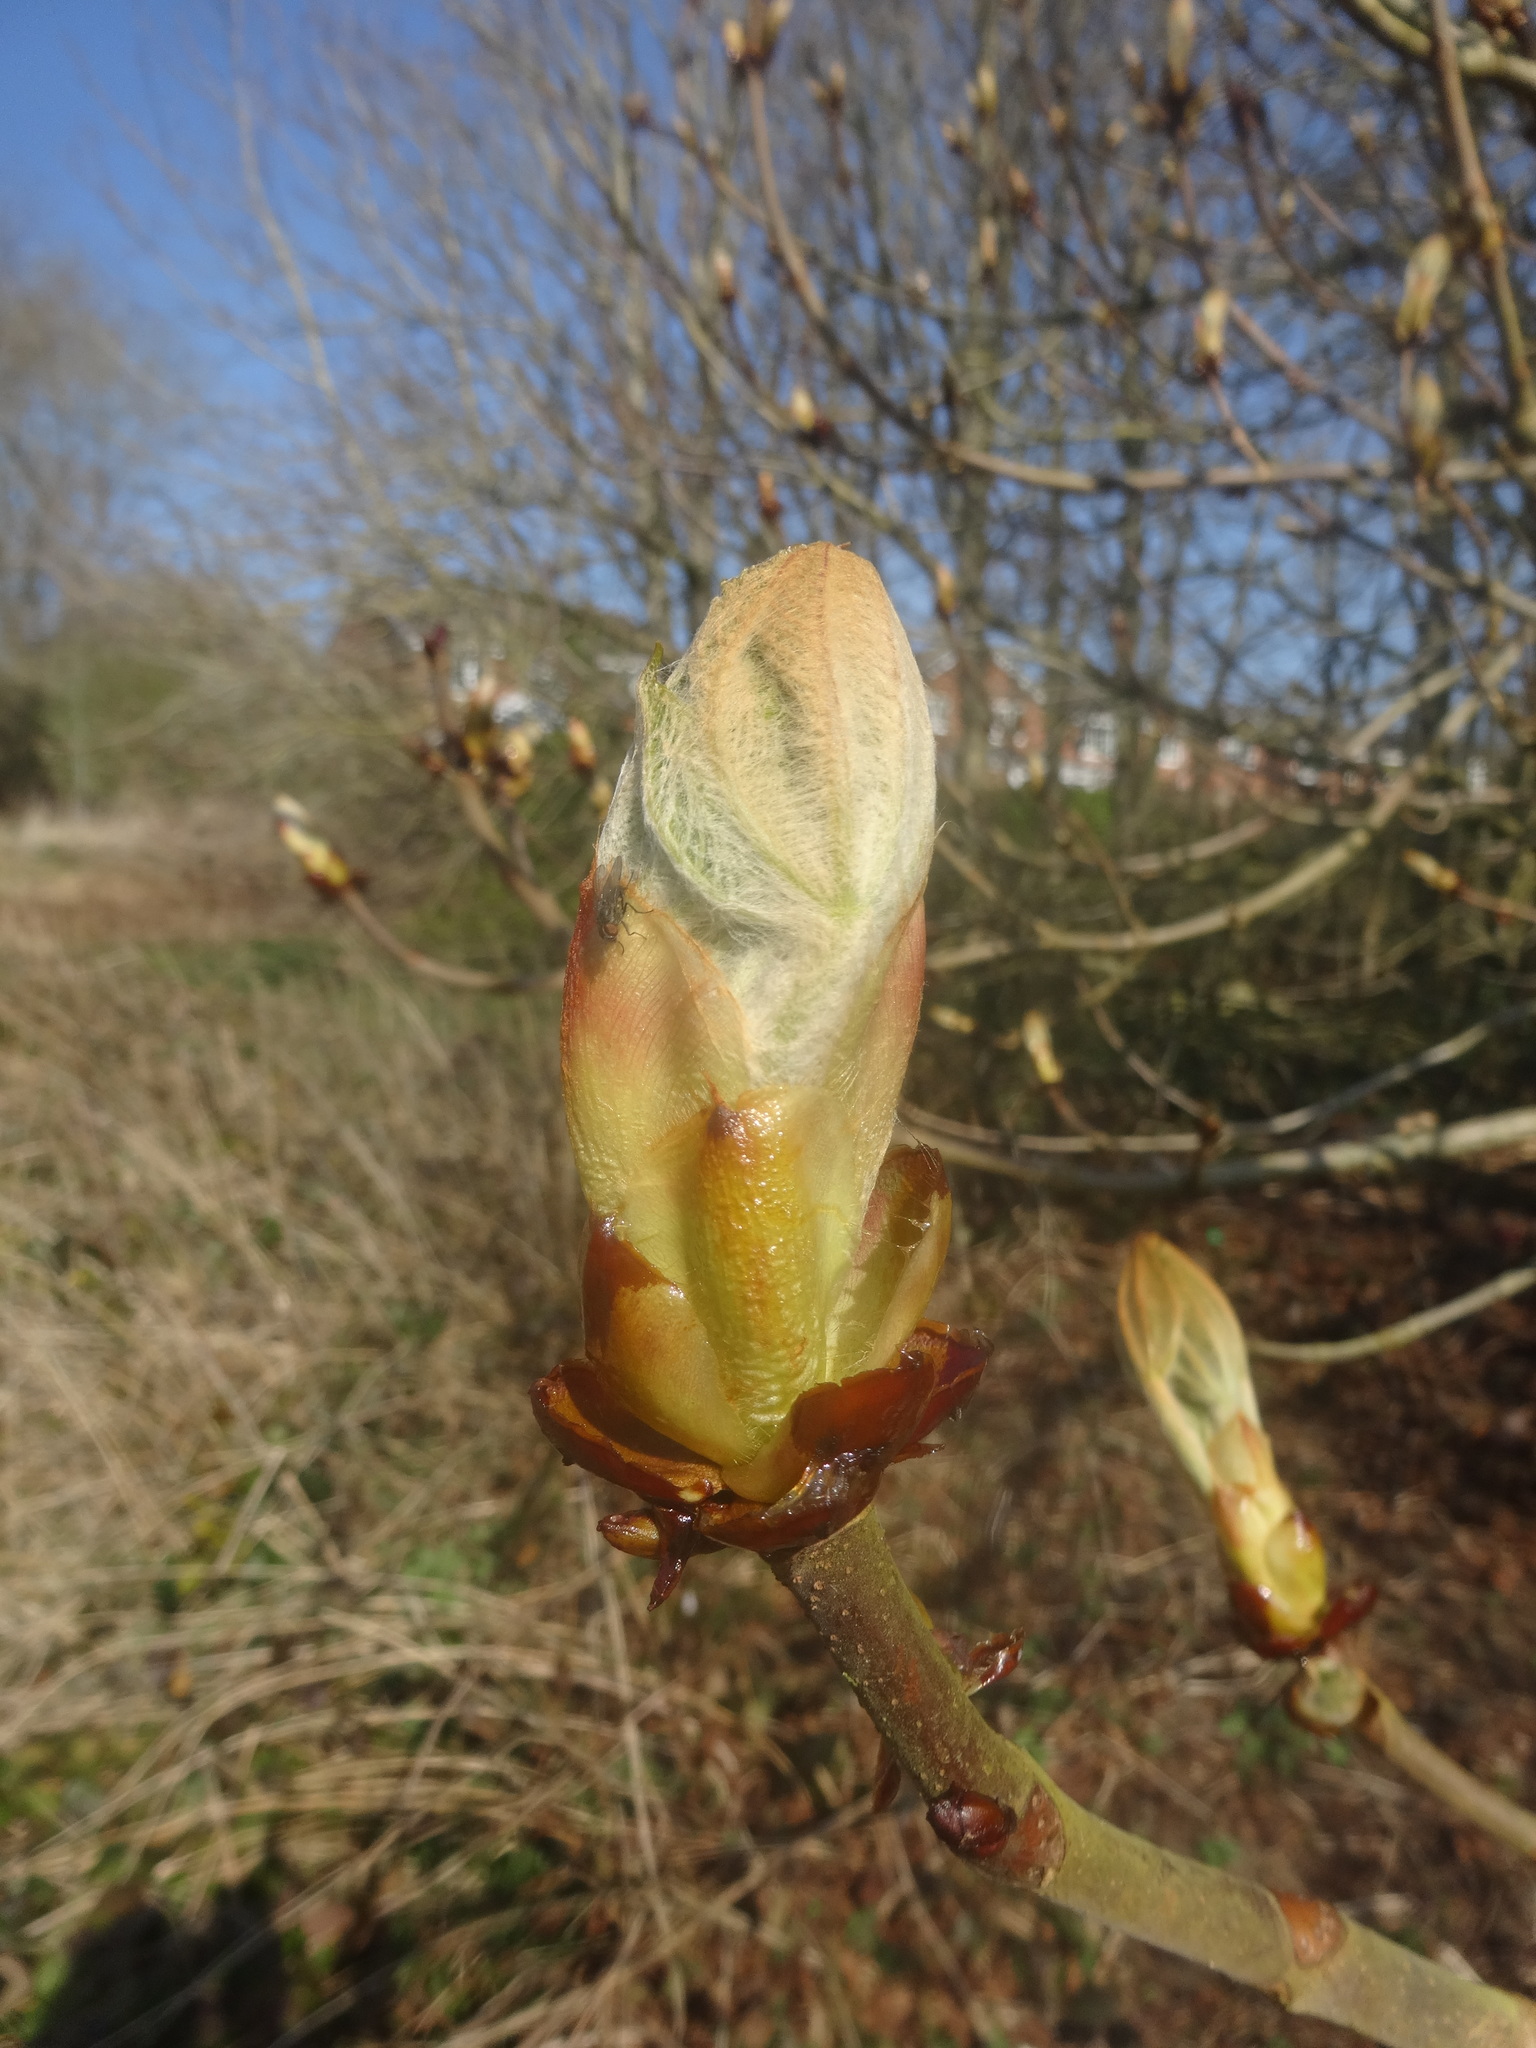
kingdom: Plantae
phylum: Tracheophyta
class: Magnoliopsida
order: Sapindales
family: Sapindaceae
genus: Aesculus
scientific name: Aesculus hippocastanum
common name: Horse-chestnut
